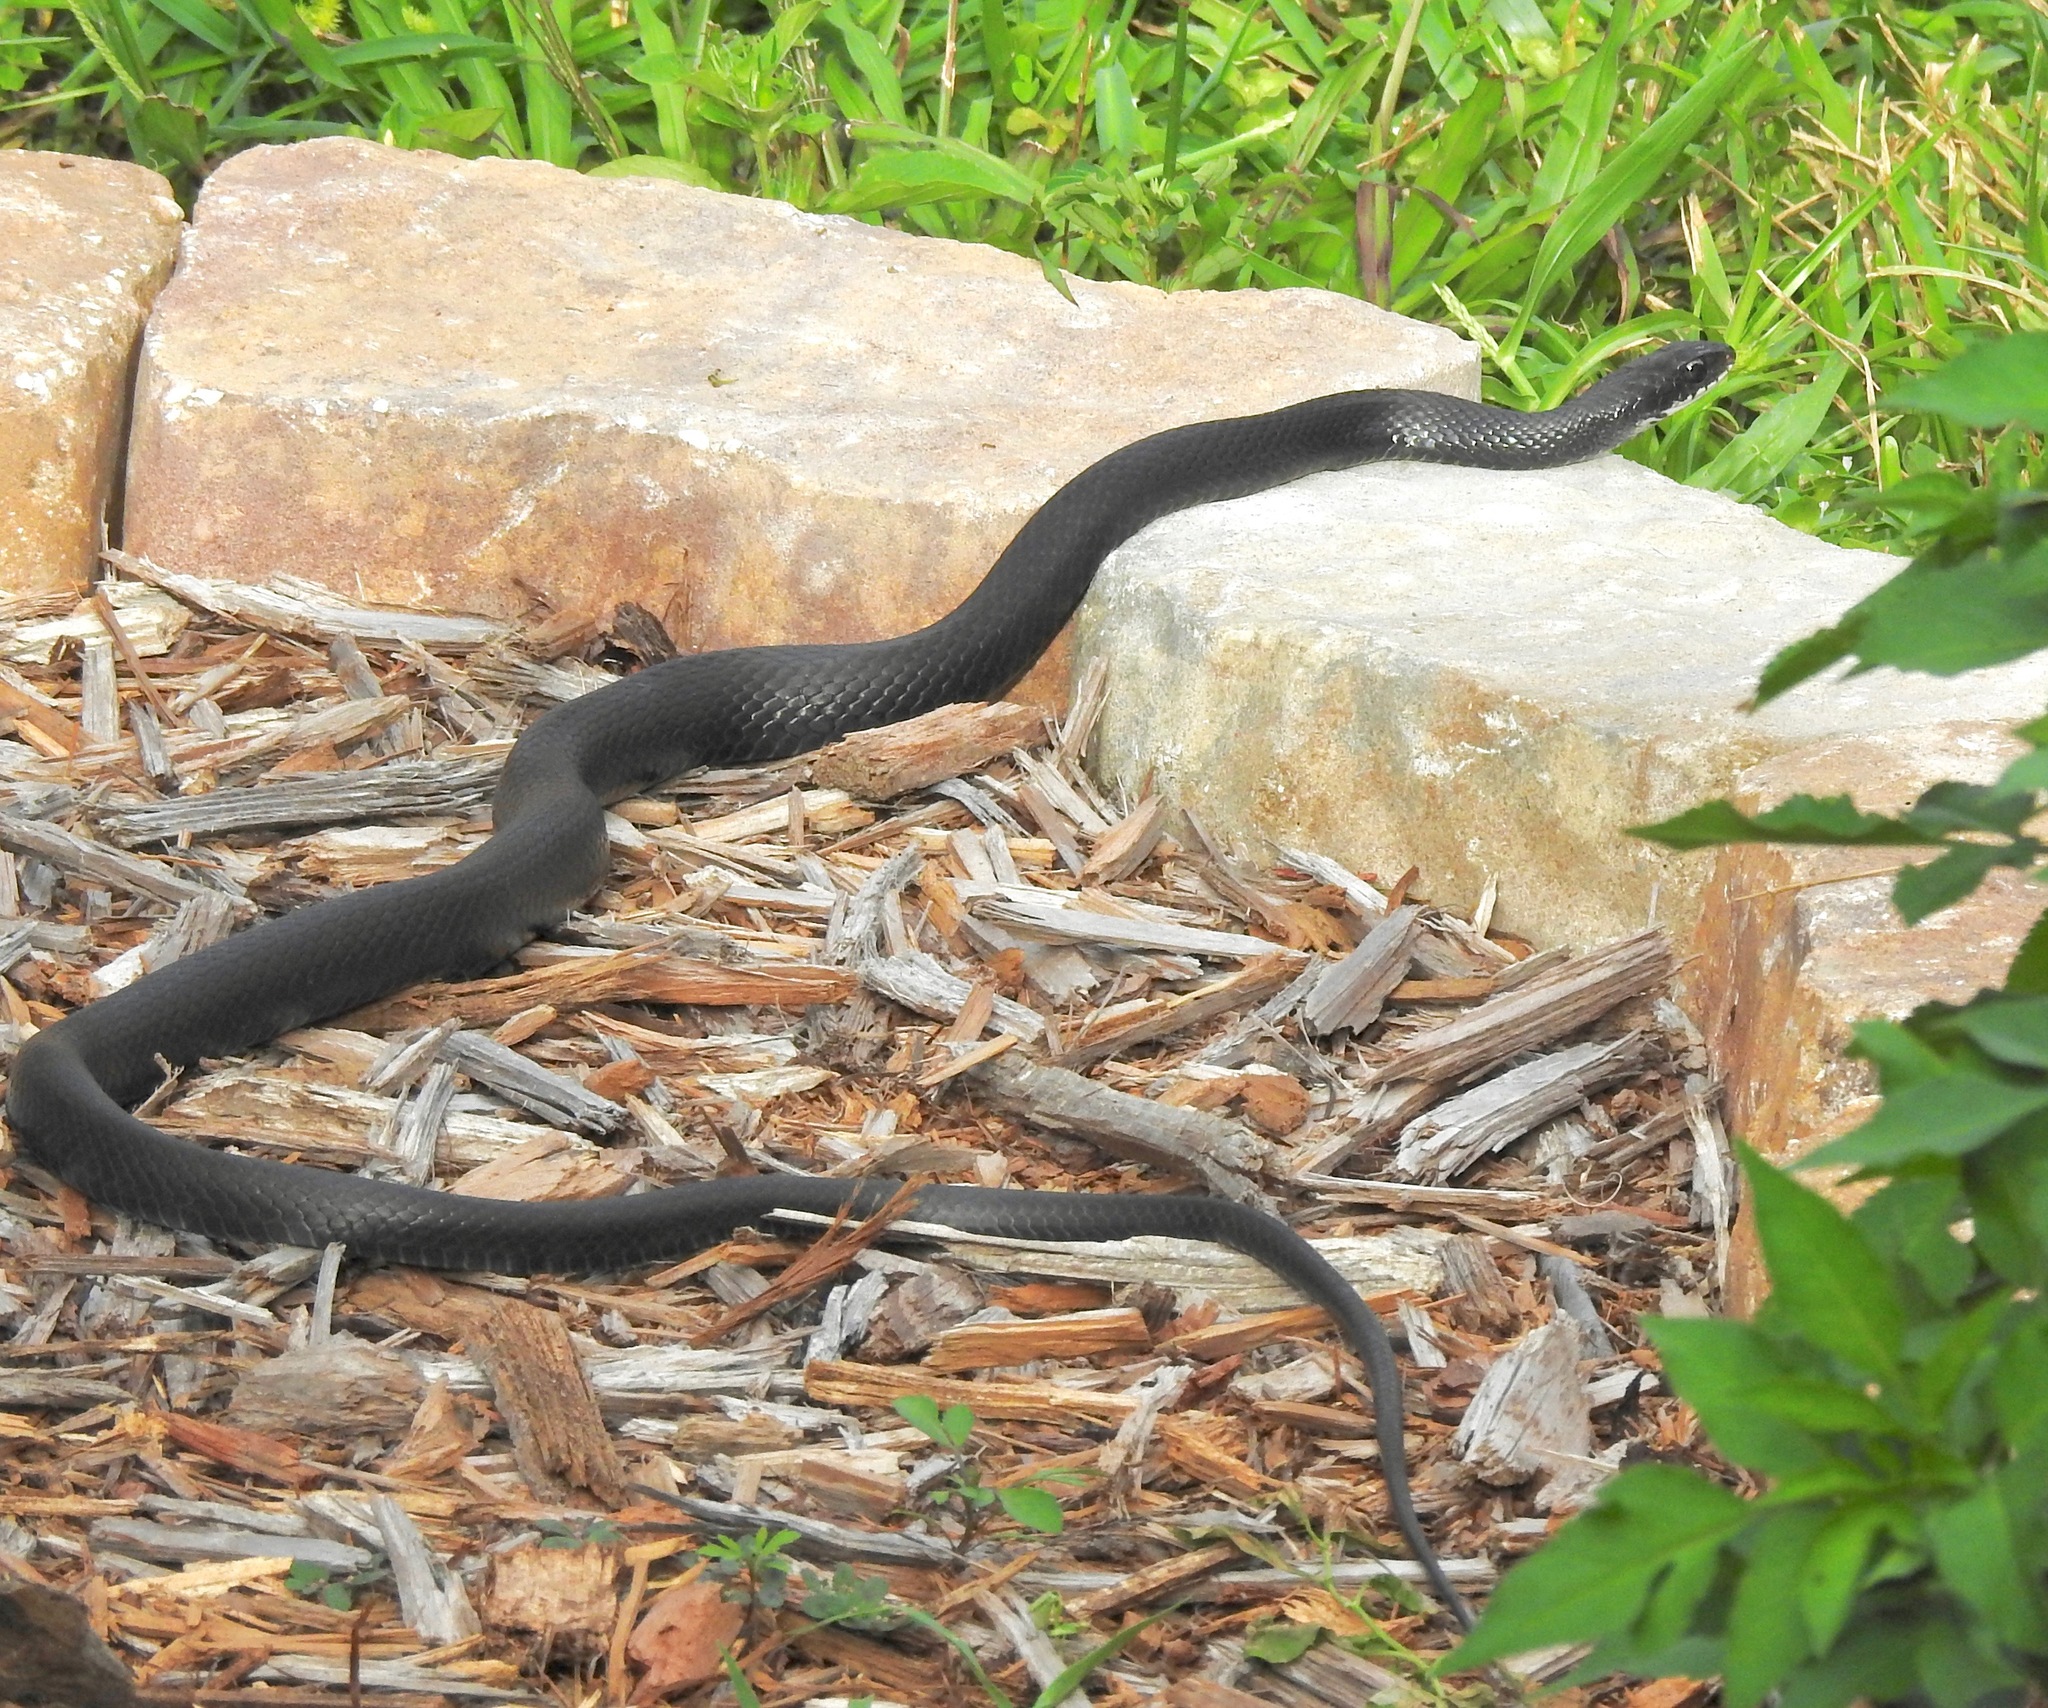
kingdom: Animalia
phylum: Chordata
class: Squamata
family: Colubridae
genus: Coluber
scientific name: Coluber constrictor
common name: Eastern racer
